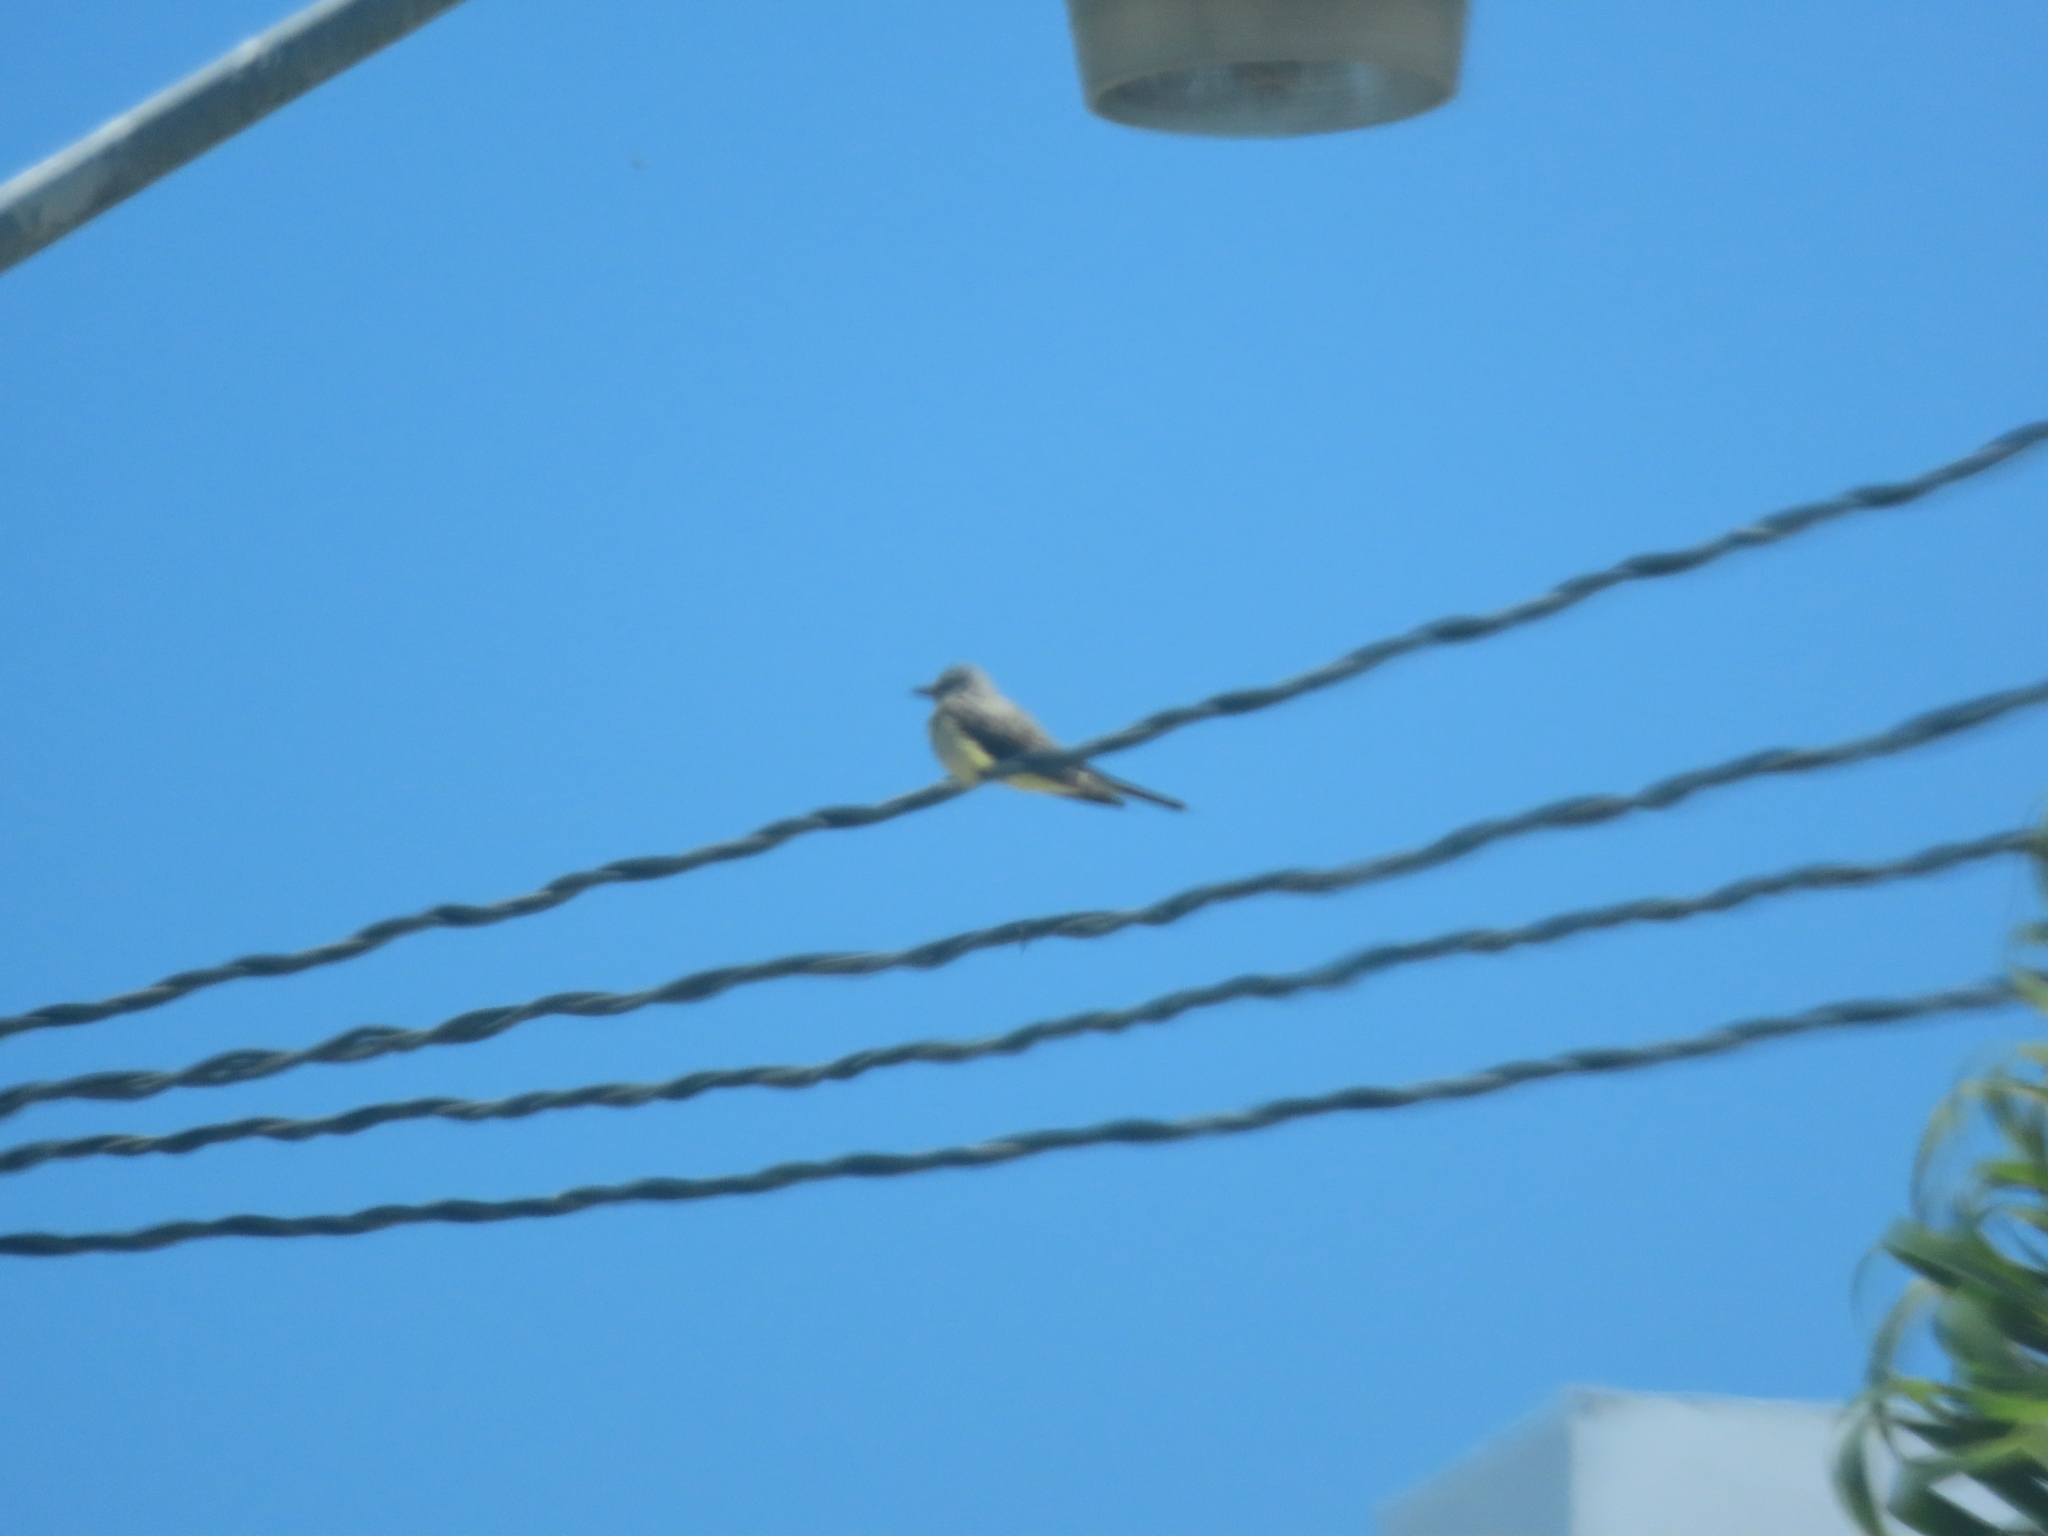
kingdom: Animalia
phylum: Chordata
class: Aves
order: Passeriformes
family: Tyrannidae
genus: Tyrannus
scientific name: Tyrannus vociferans
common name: Cassin's kingbird
